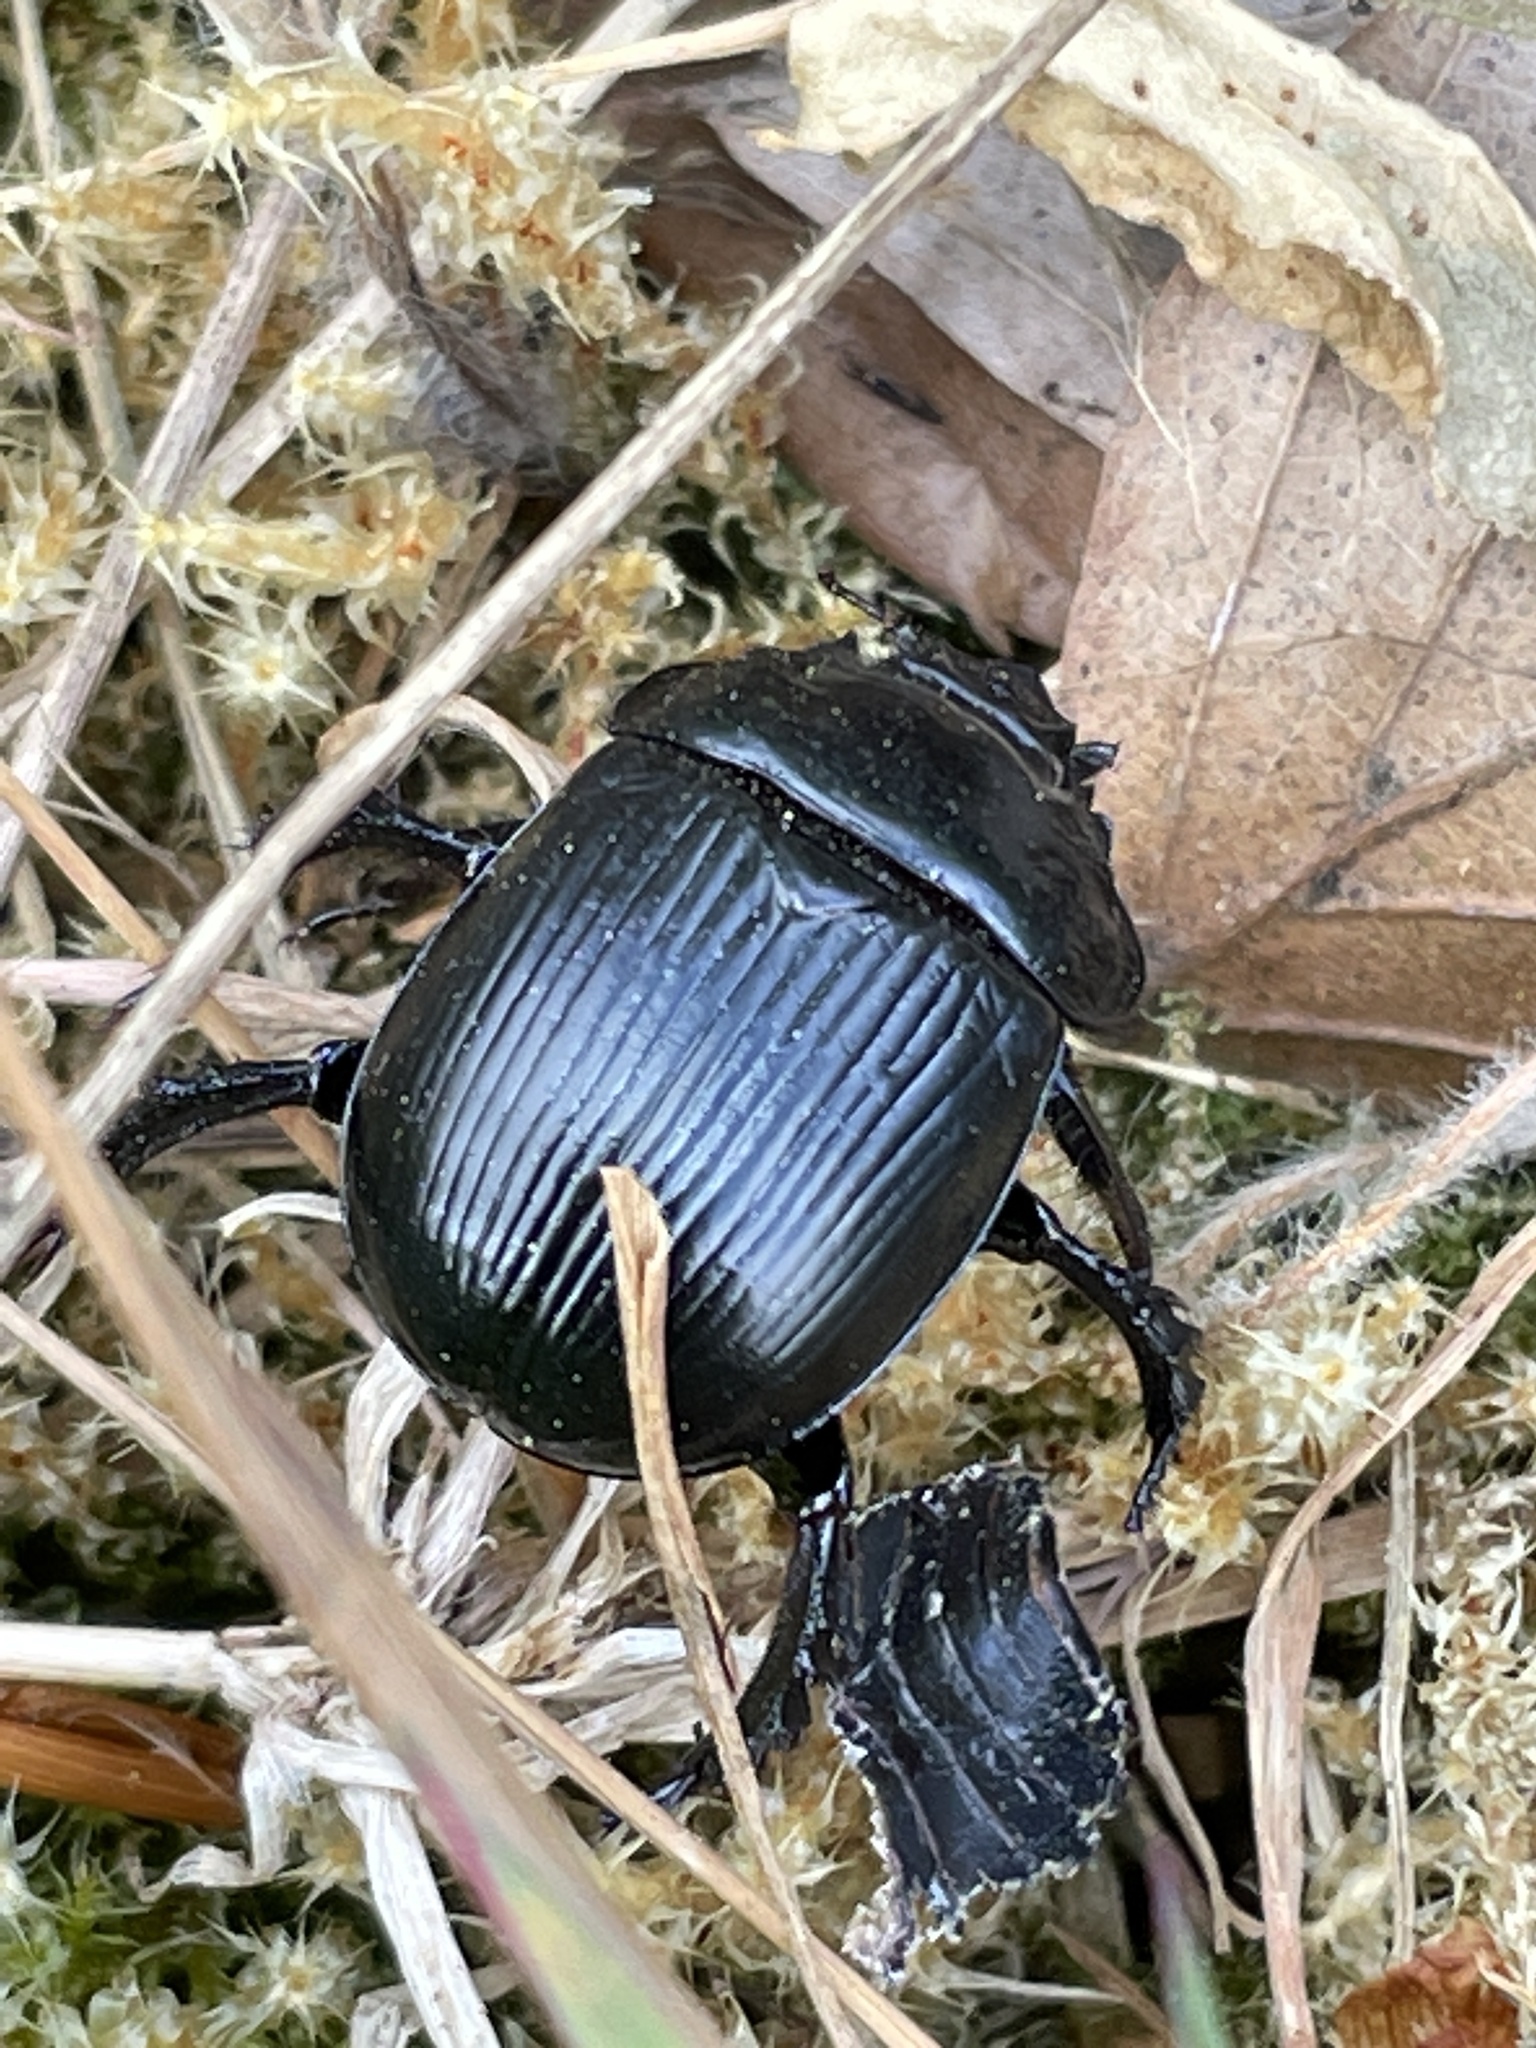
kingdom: Animalia
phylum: Arthropoda
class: Insecta
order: Coleoptera
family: Geotrupidae
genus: Typhaeus
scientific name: Typhaeus typhoeus
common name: Minotaur beetle
